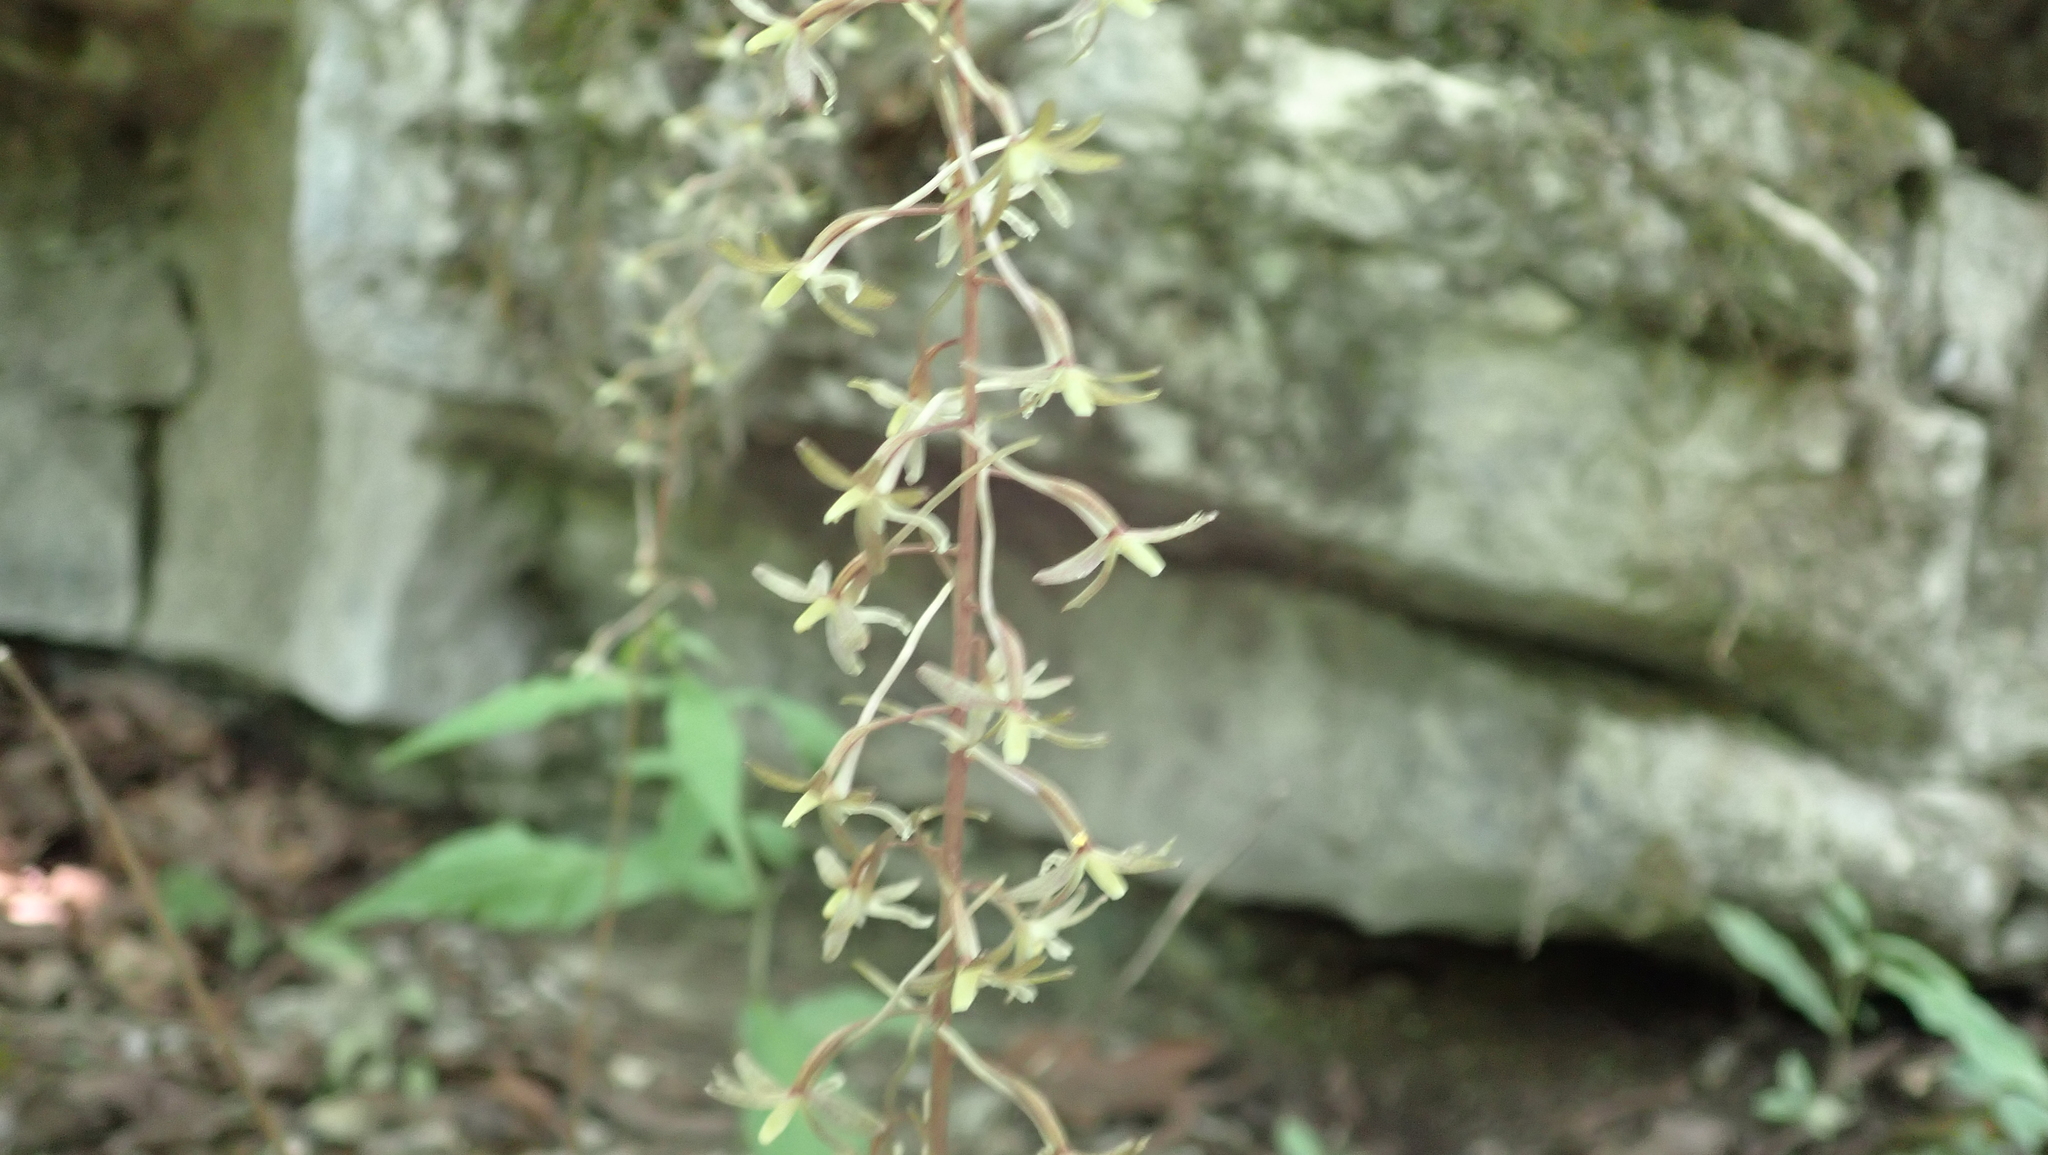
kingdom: Plantae
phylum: Tracheophyta
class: Liliopsida
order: Asparagales
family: Orchidaceae
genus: Tipularia
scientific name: Tipularia discolor
